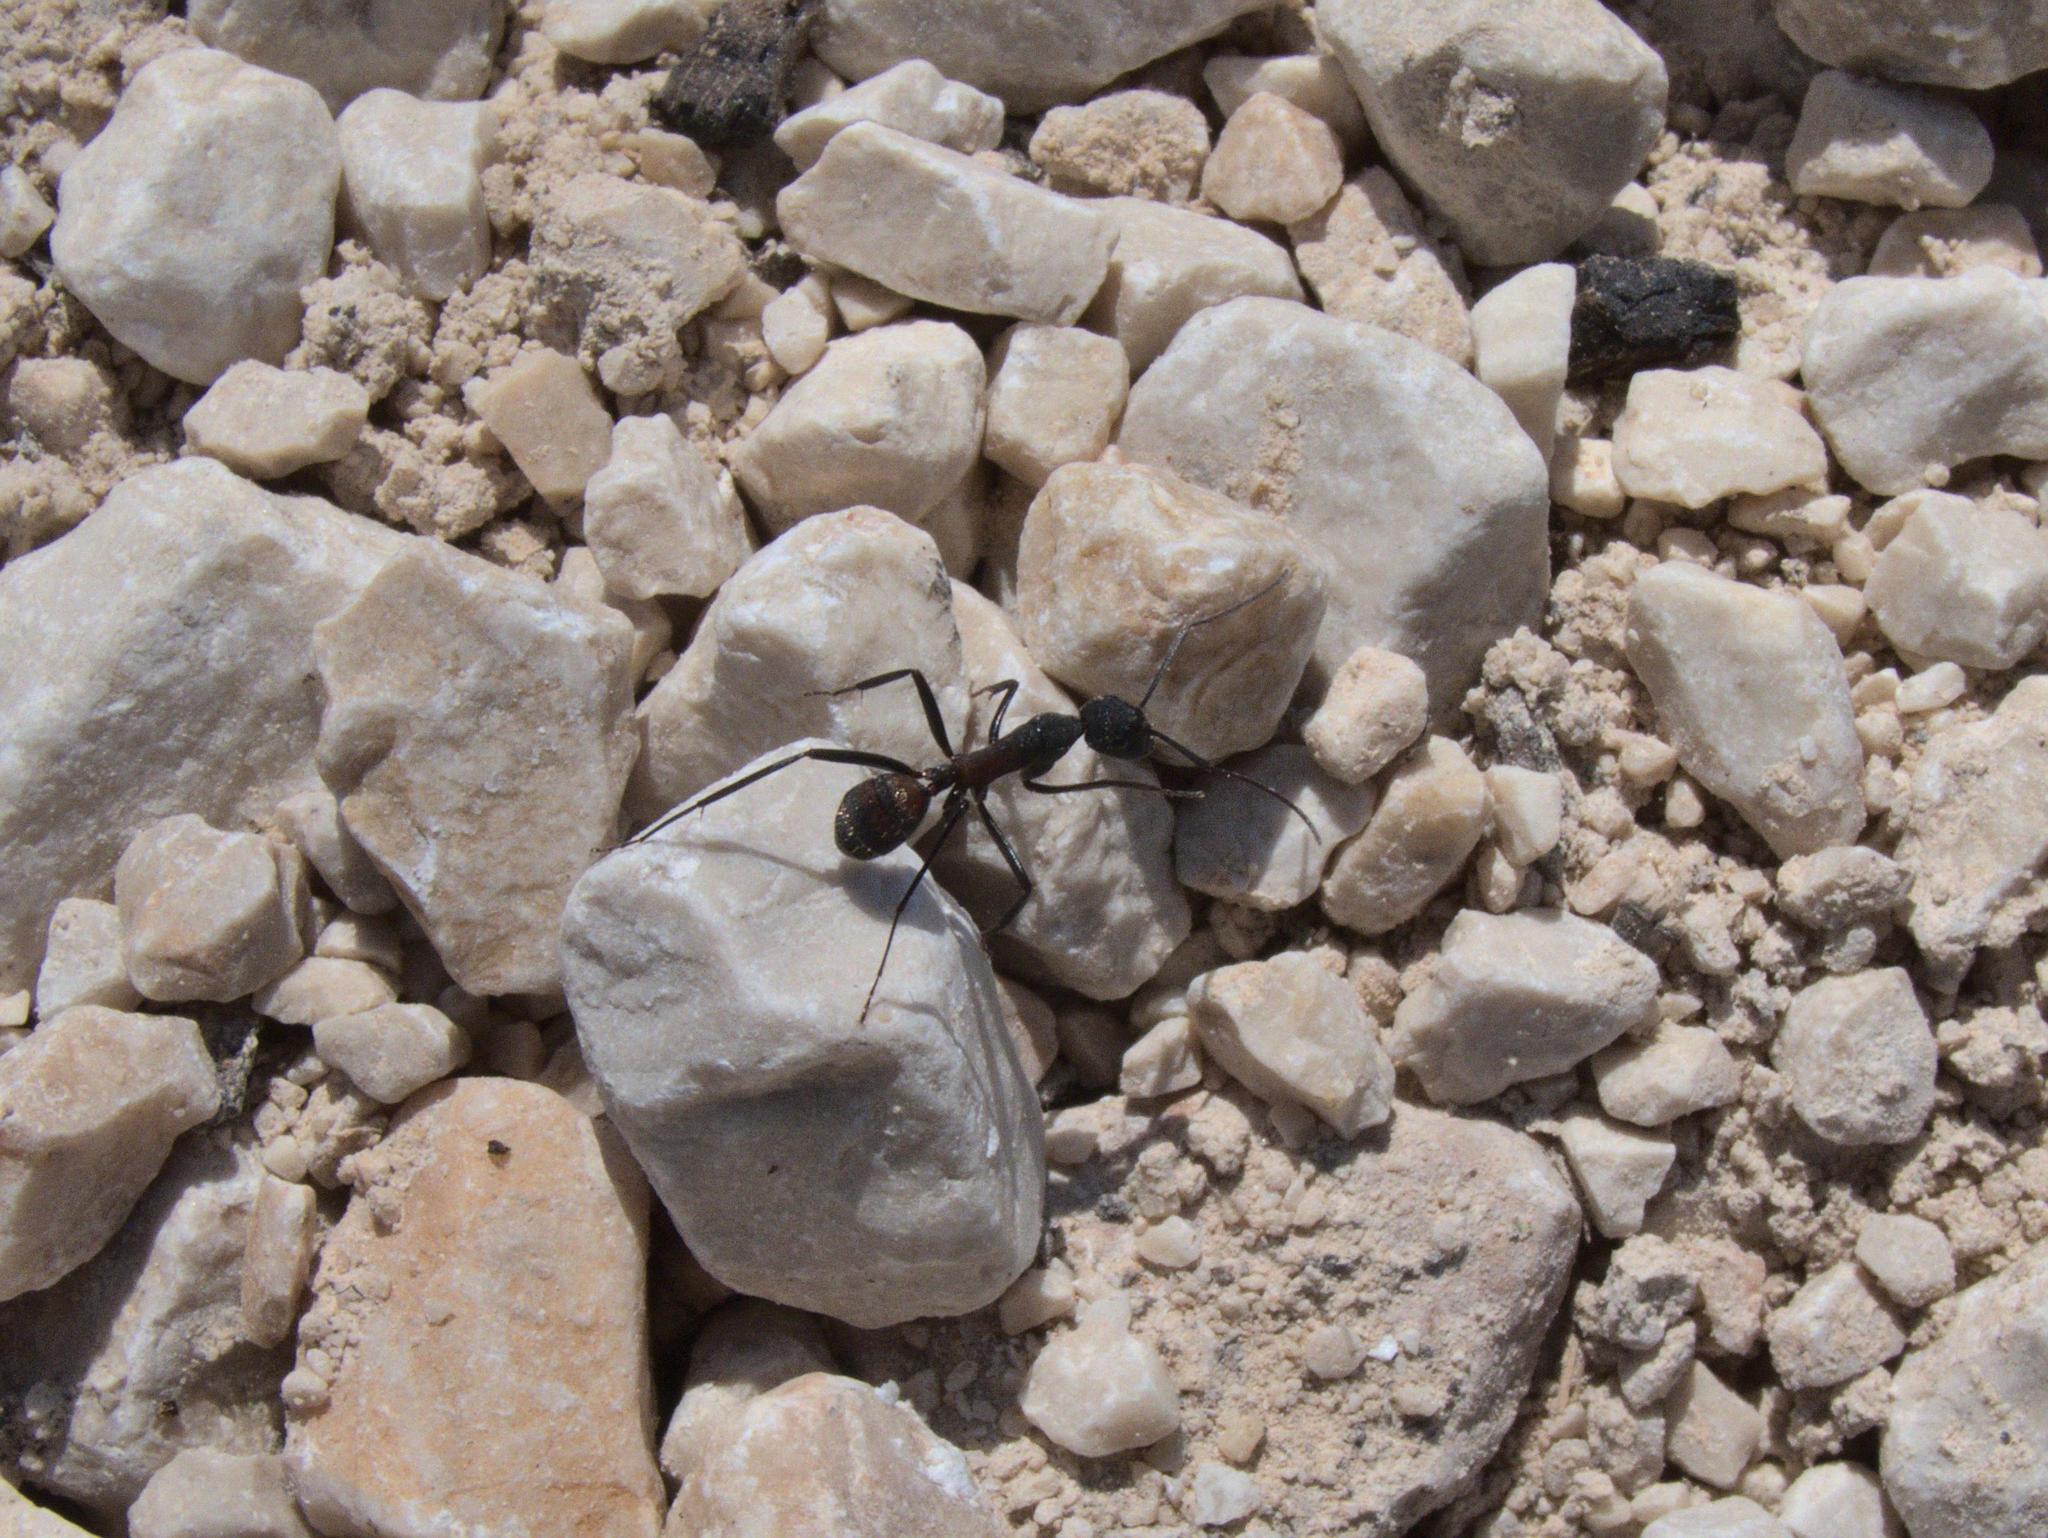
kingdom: Animalia
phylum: Arthropoda
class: Insecta
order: Hymenoptera
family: Formicidae
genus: Camponotus
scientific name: Camponotus cruentatus
